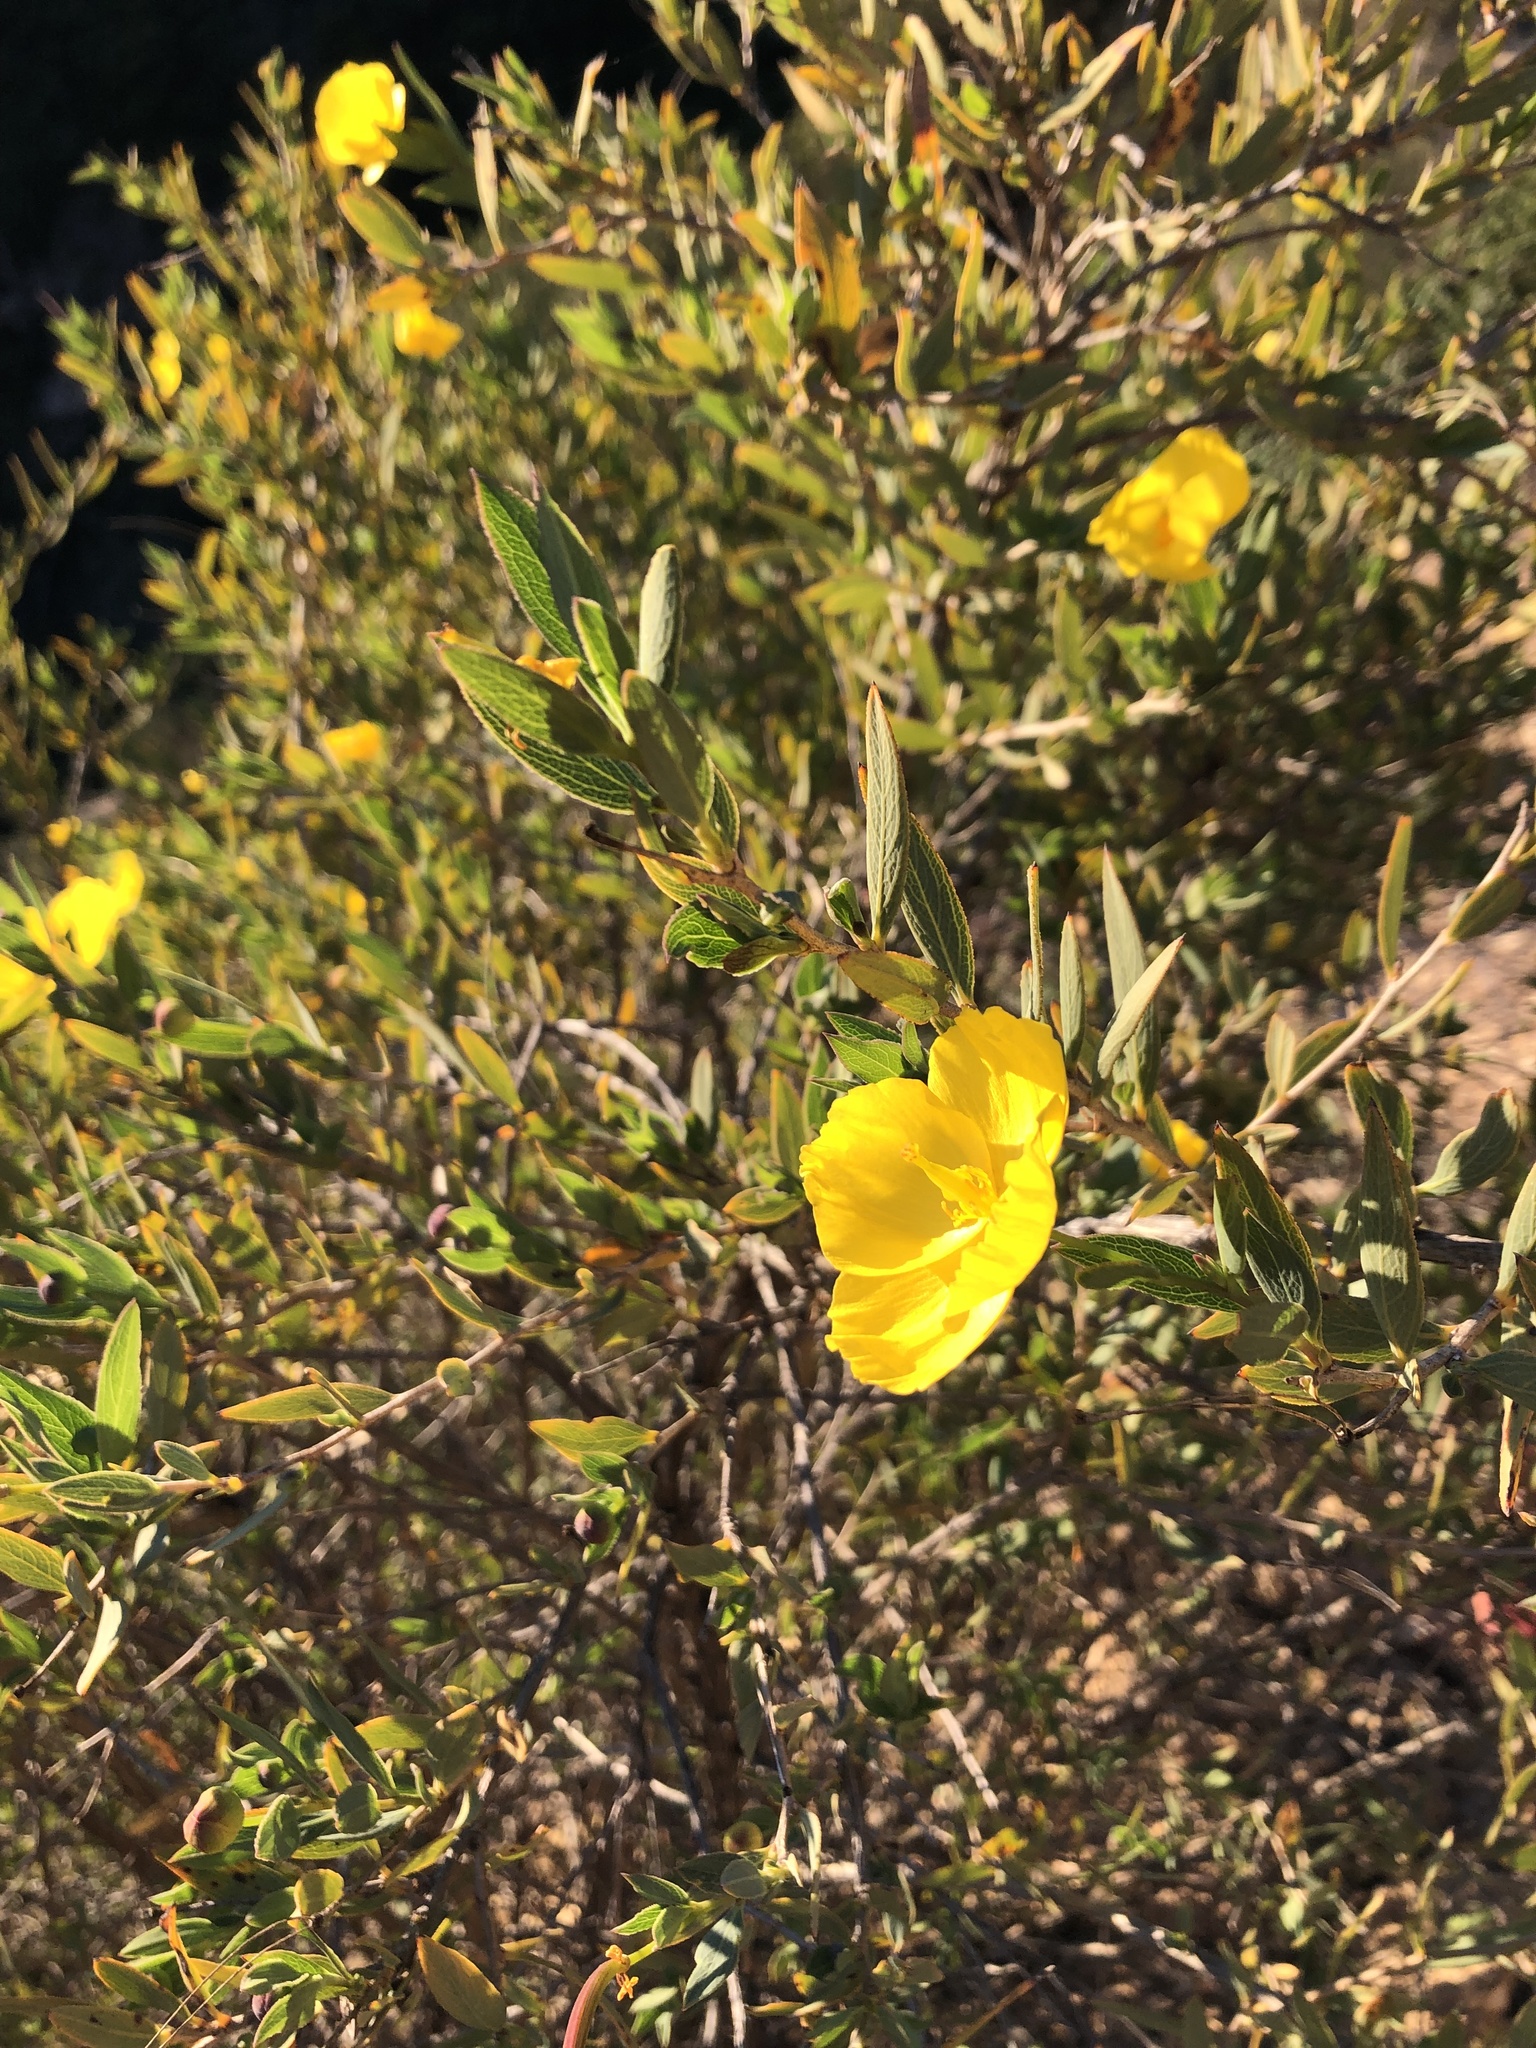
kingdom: Plantae
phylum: Tracheophyta
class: Magnoliopsida
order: Ranunculales
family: Papaveraceae
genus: Dendromecon
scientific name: Dendromecon rigida
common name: Tree poppy
